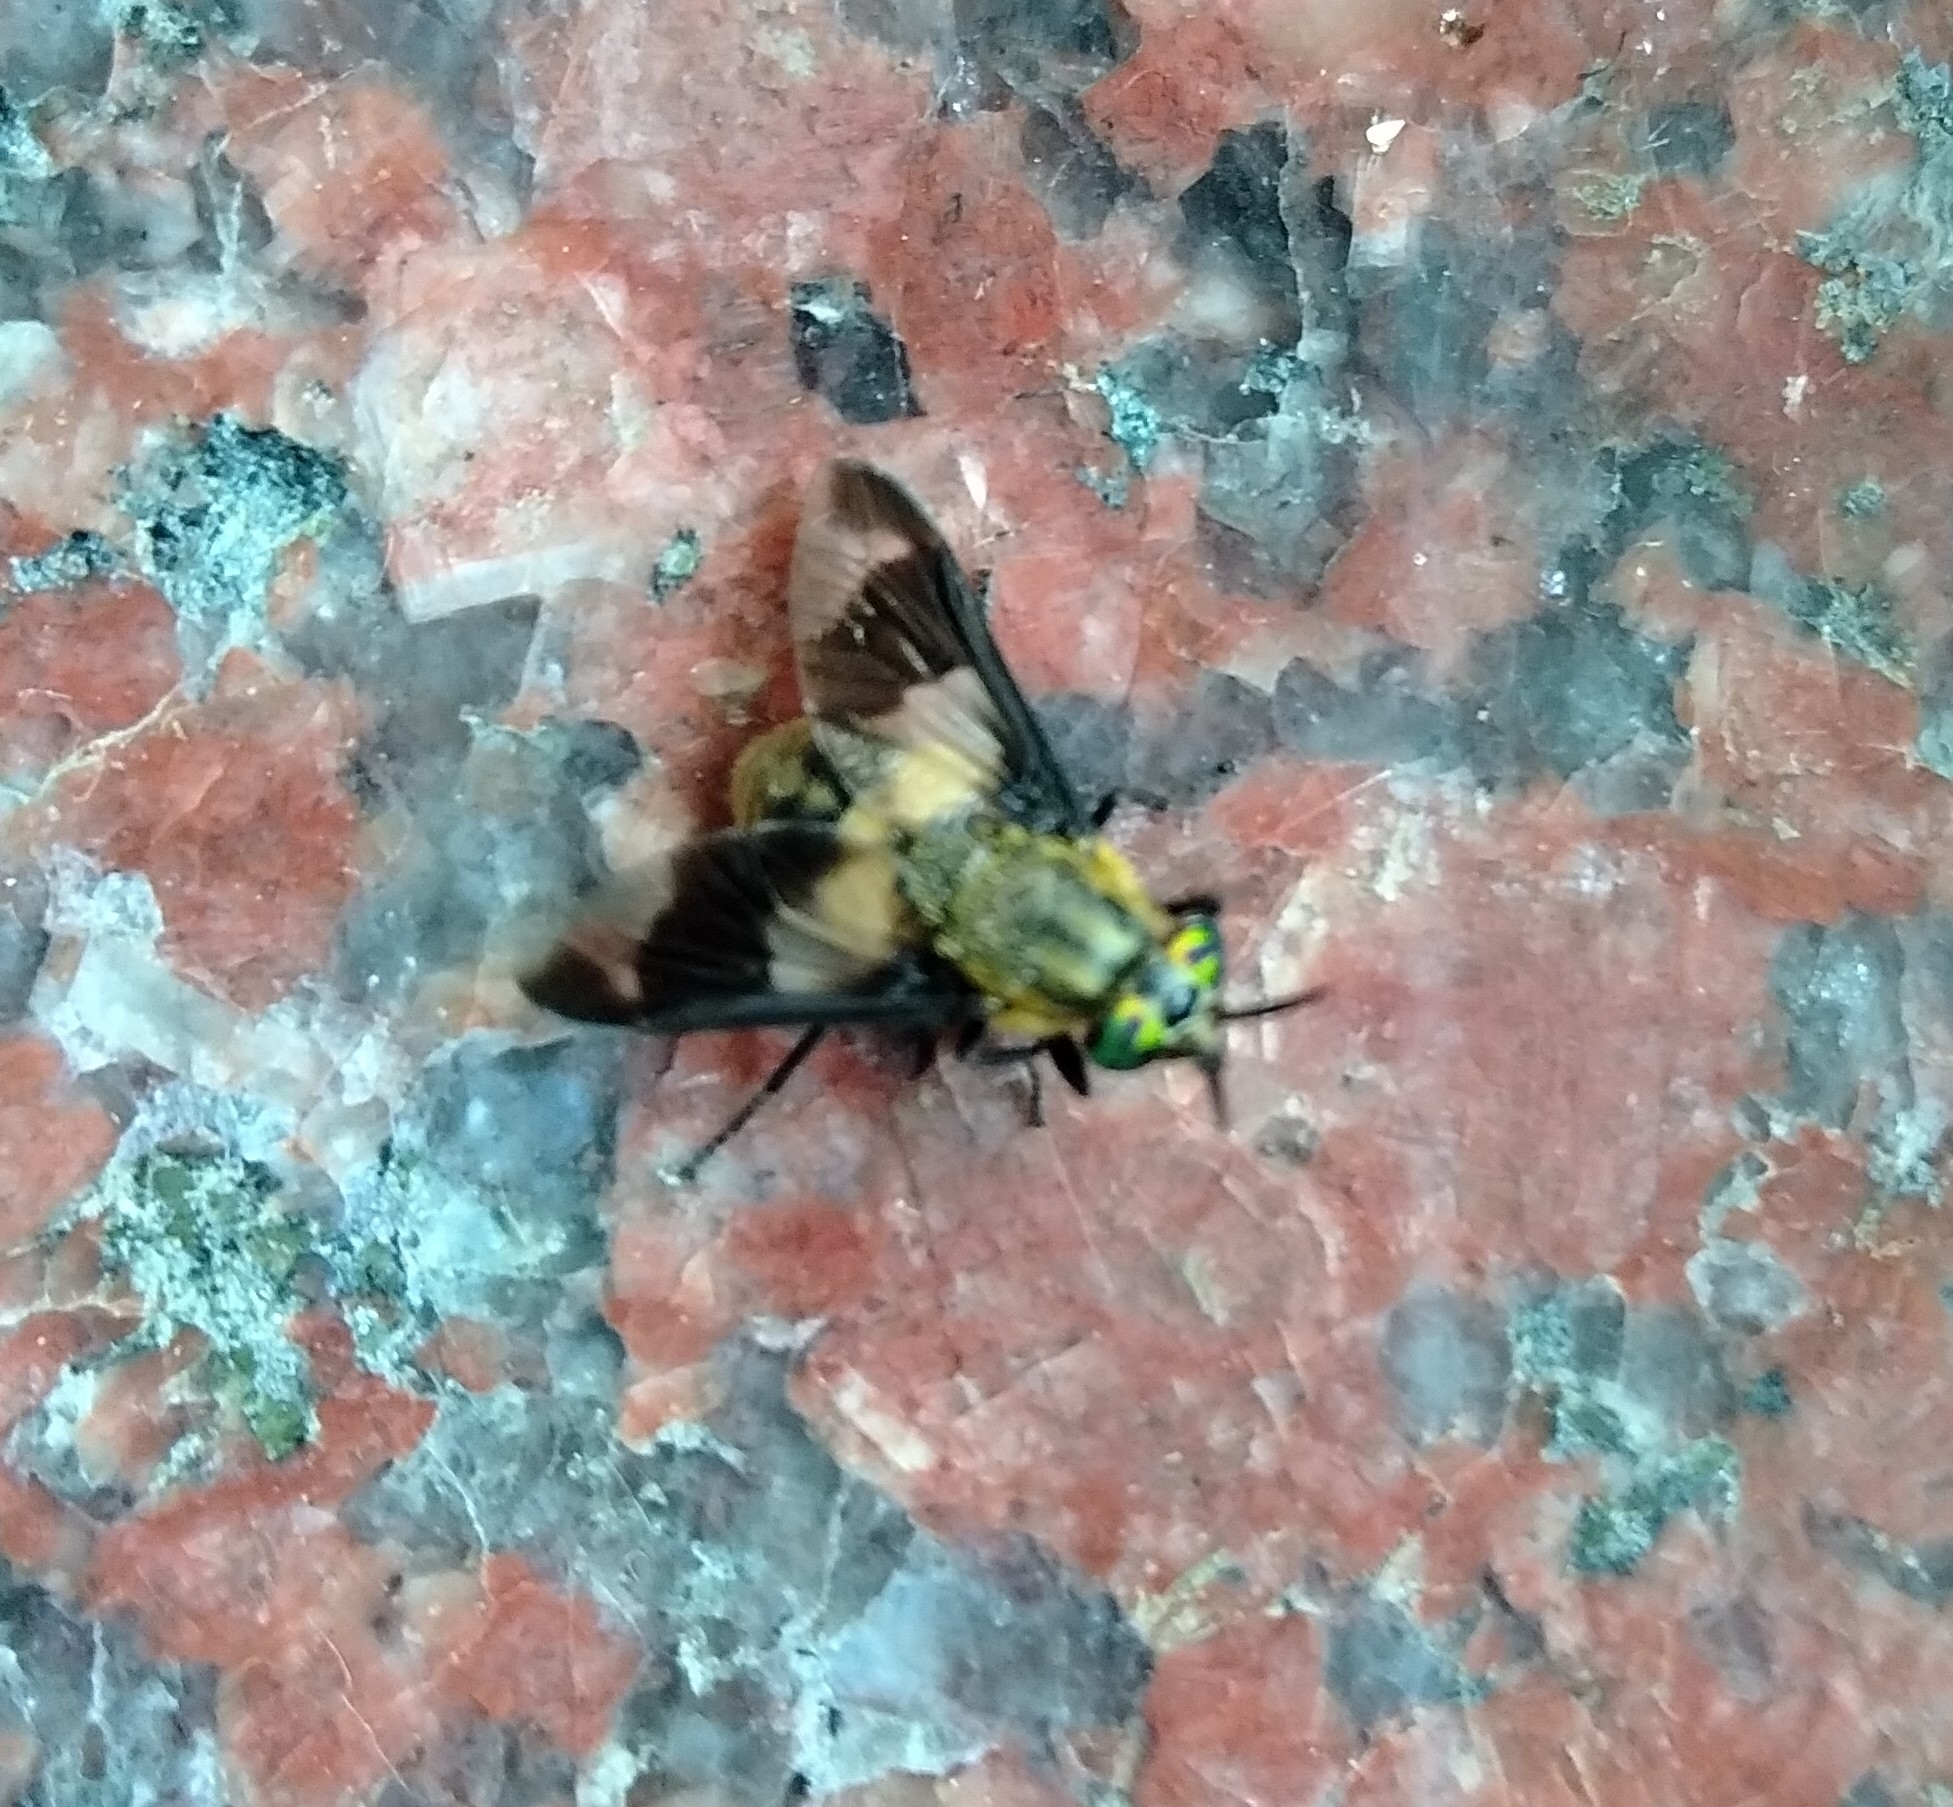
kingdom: Animalia
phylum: Arthropoda
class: Insecta
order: Diptera
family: Tabanidae
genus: Chrysops
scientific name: Chrysops caecutiens
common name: Splayed deerfly
